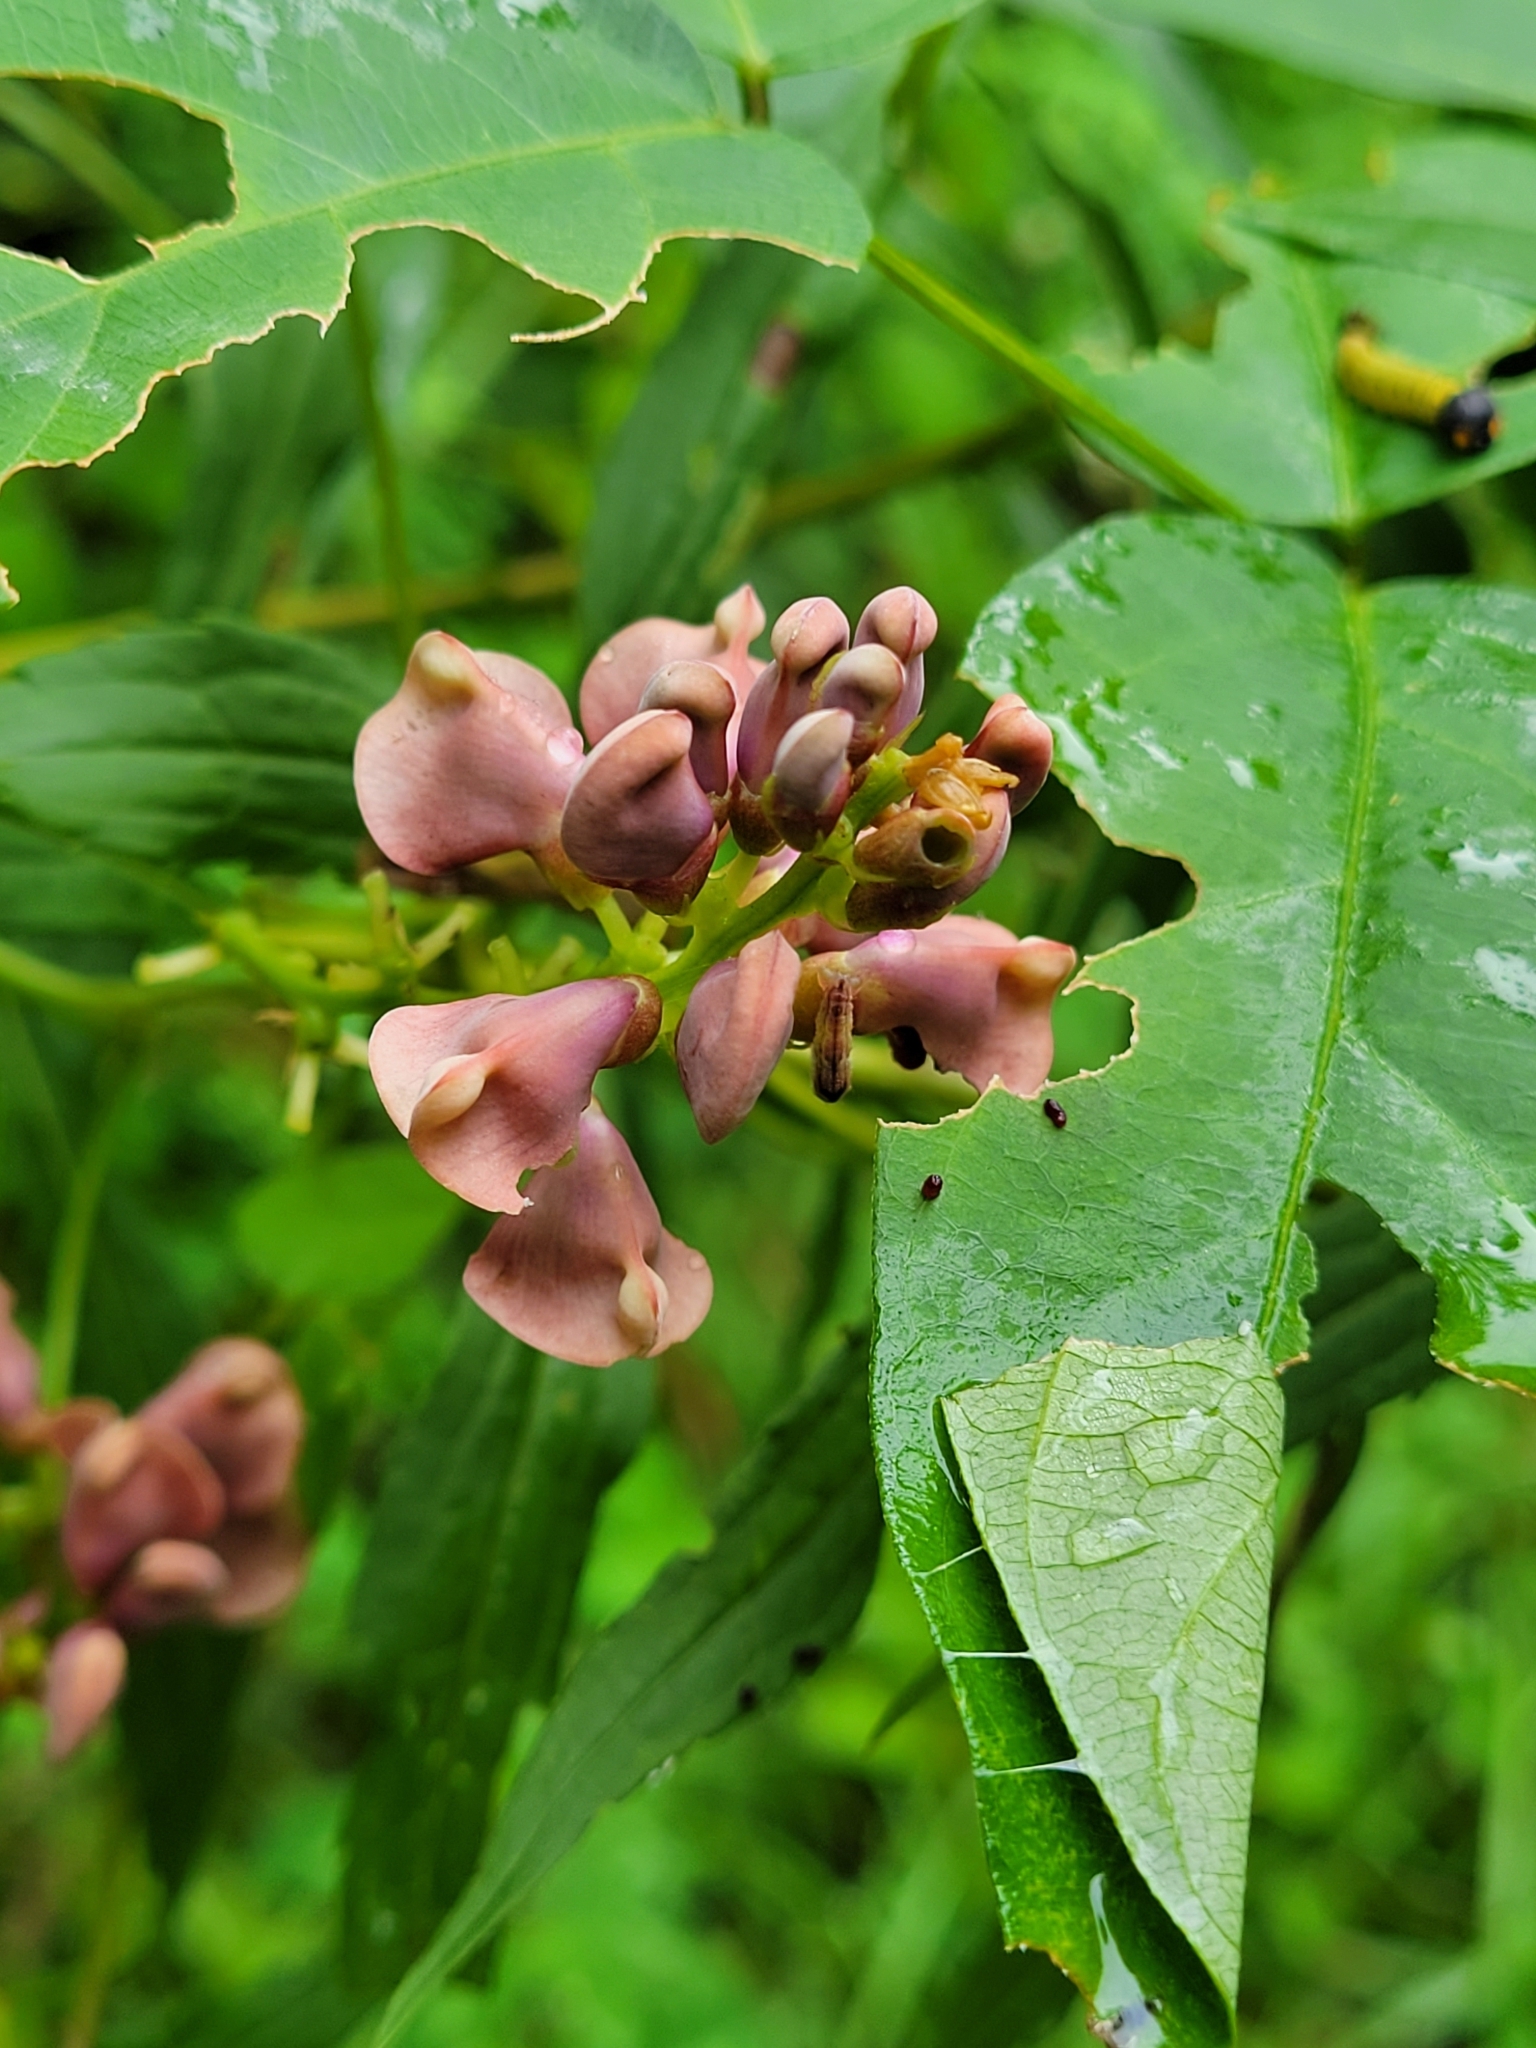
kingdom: Plantae
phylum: Tracheophyta
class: Magnoliopsida
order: Fabales
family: Fabaceae
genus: Apios
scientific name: Apios americana
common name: American potato-bean
